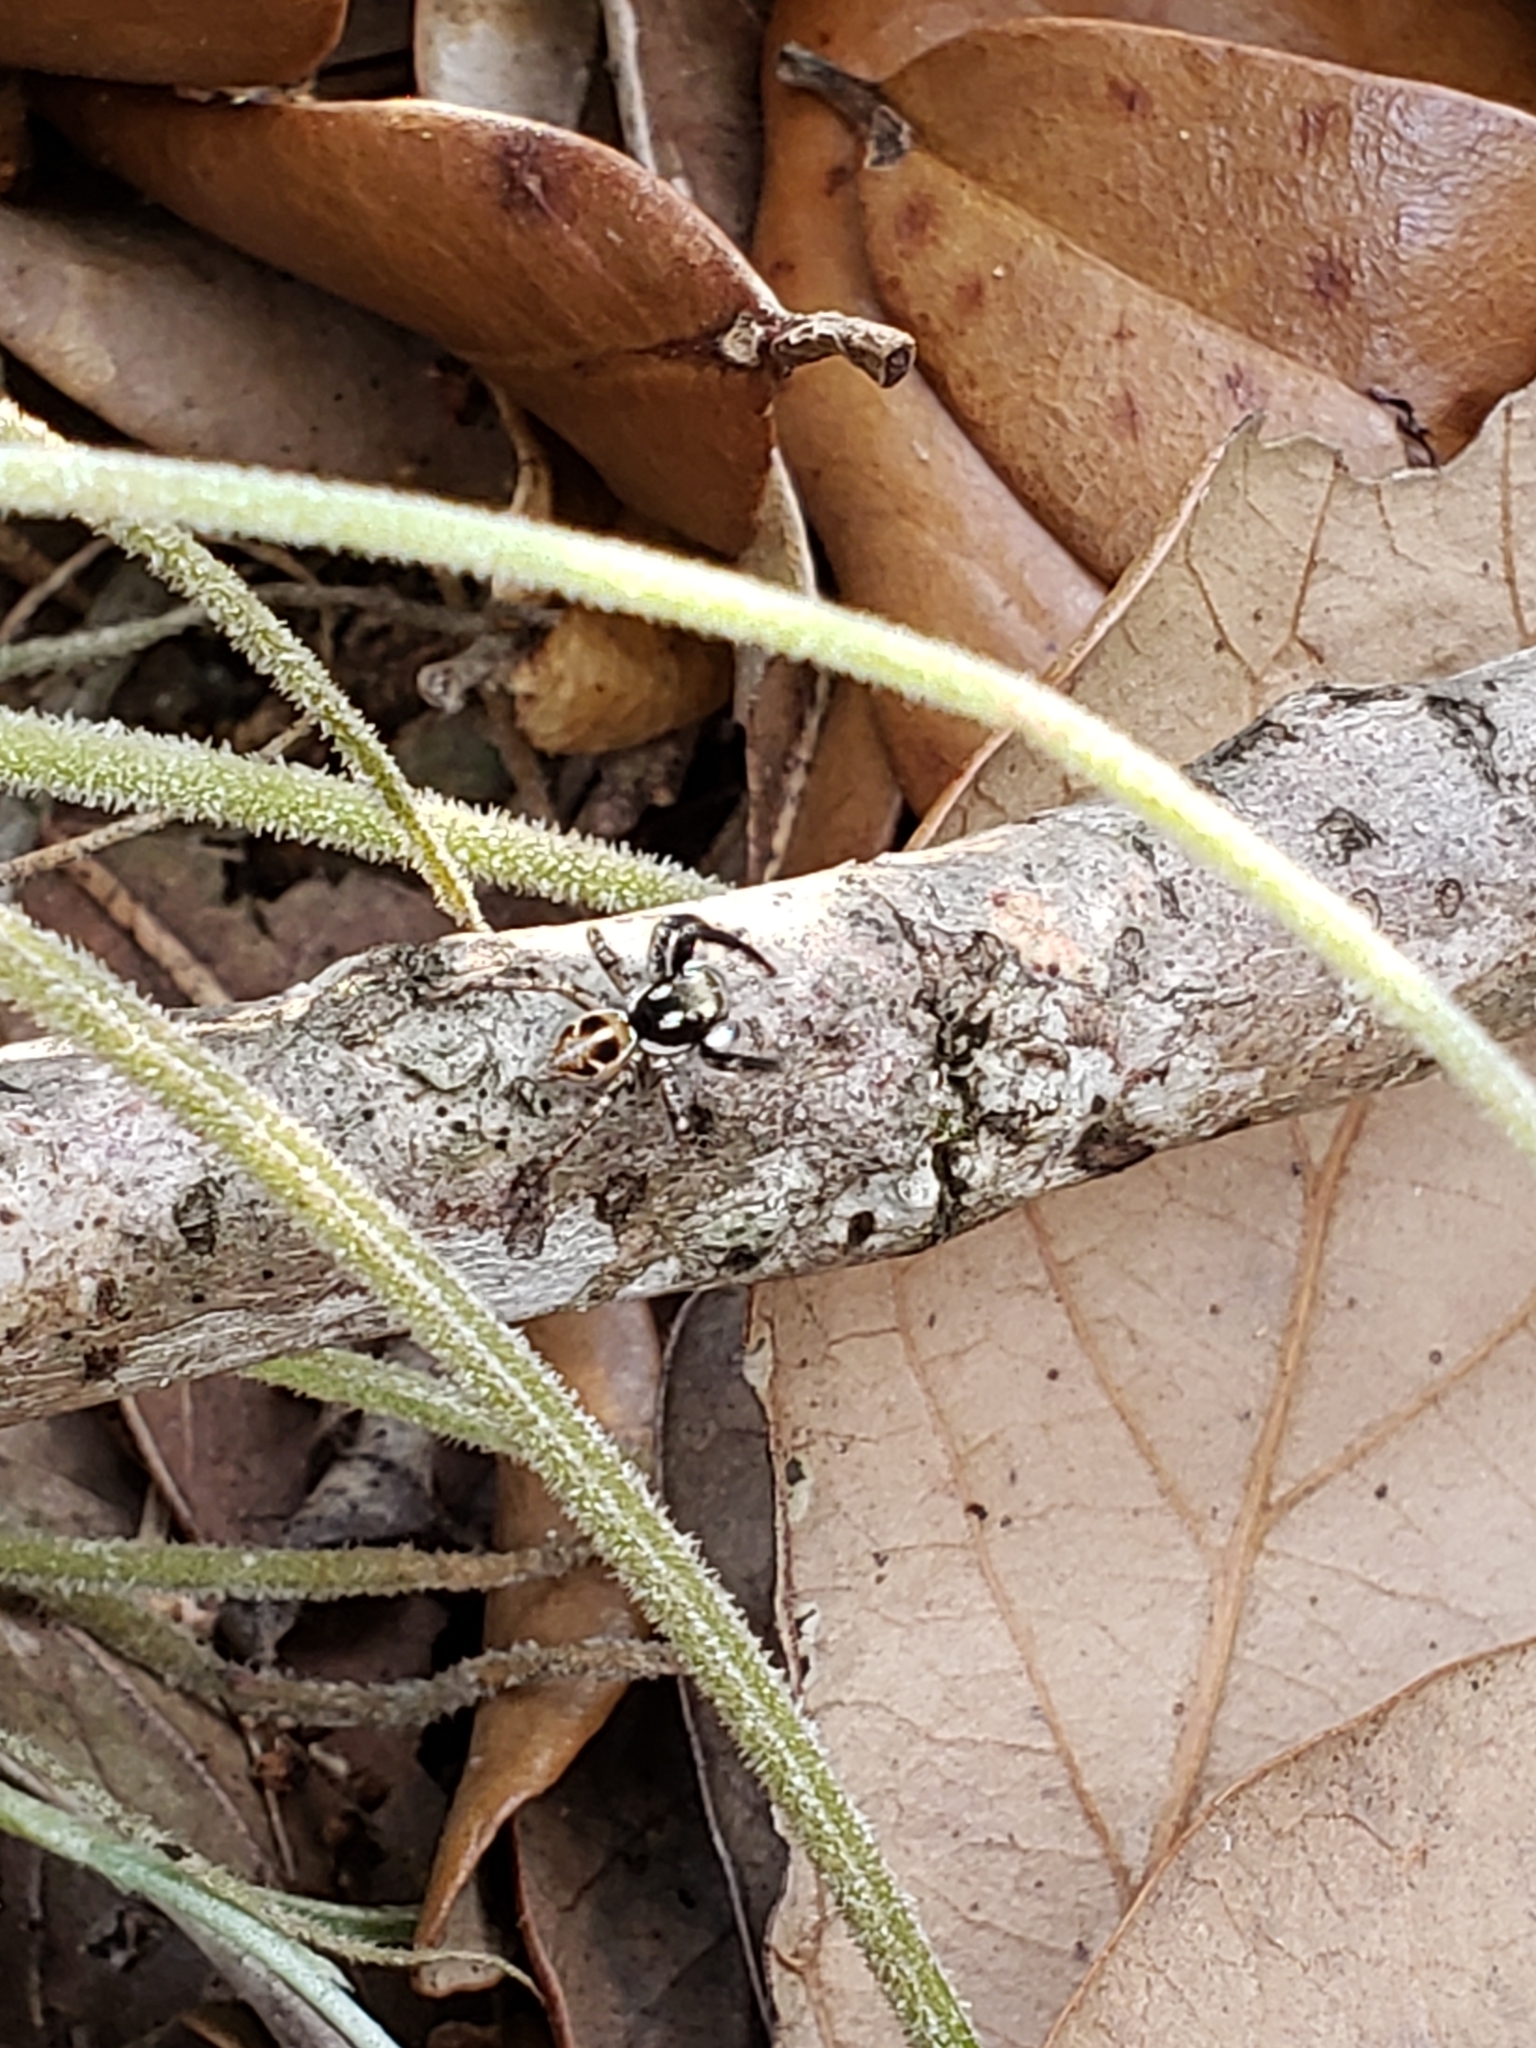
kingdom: Animalia
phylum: Arthropoda
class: Arachnida
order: Araneae
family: Salticidae
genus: Anasaitis
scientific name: Anasaitis canosa
